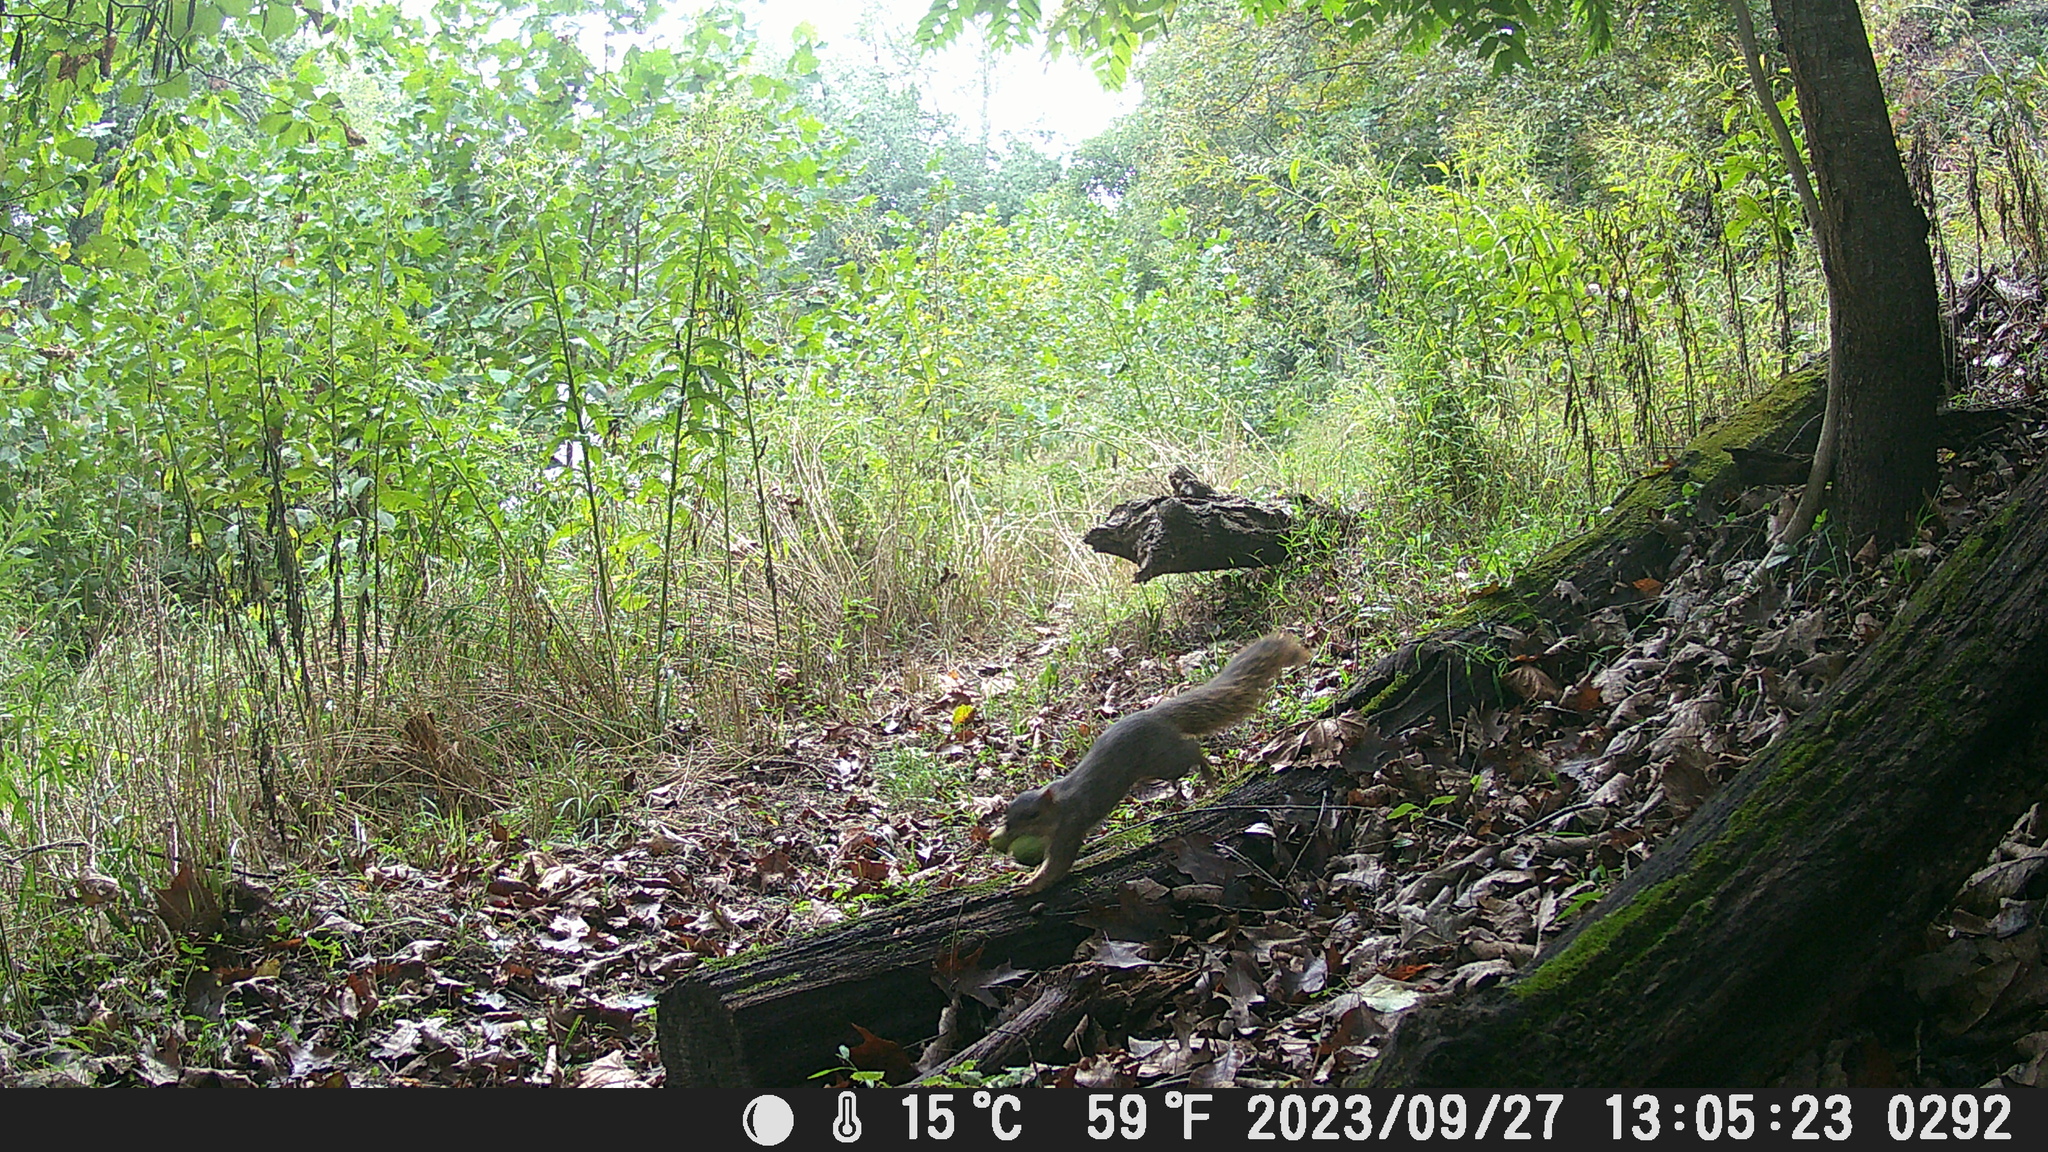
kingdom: Animalia
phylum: Chordata
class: Mammalia
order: Rodentia
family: Sciuridae
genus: Sciurus
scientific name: Sciurus carolinensis
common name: Eastern gray squirrel
